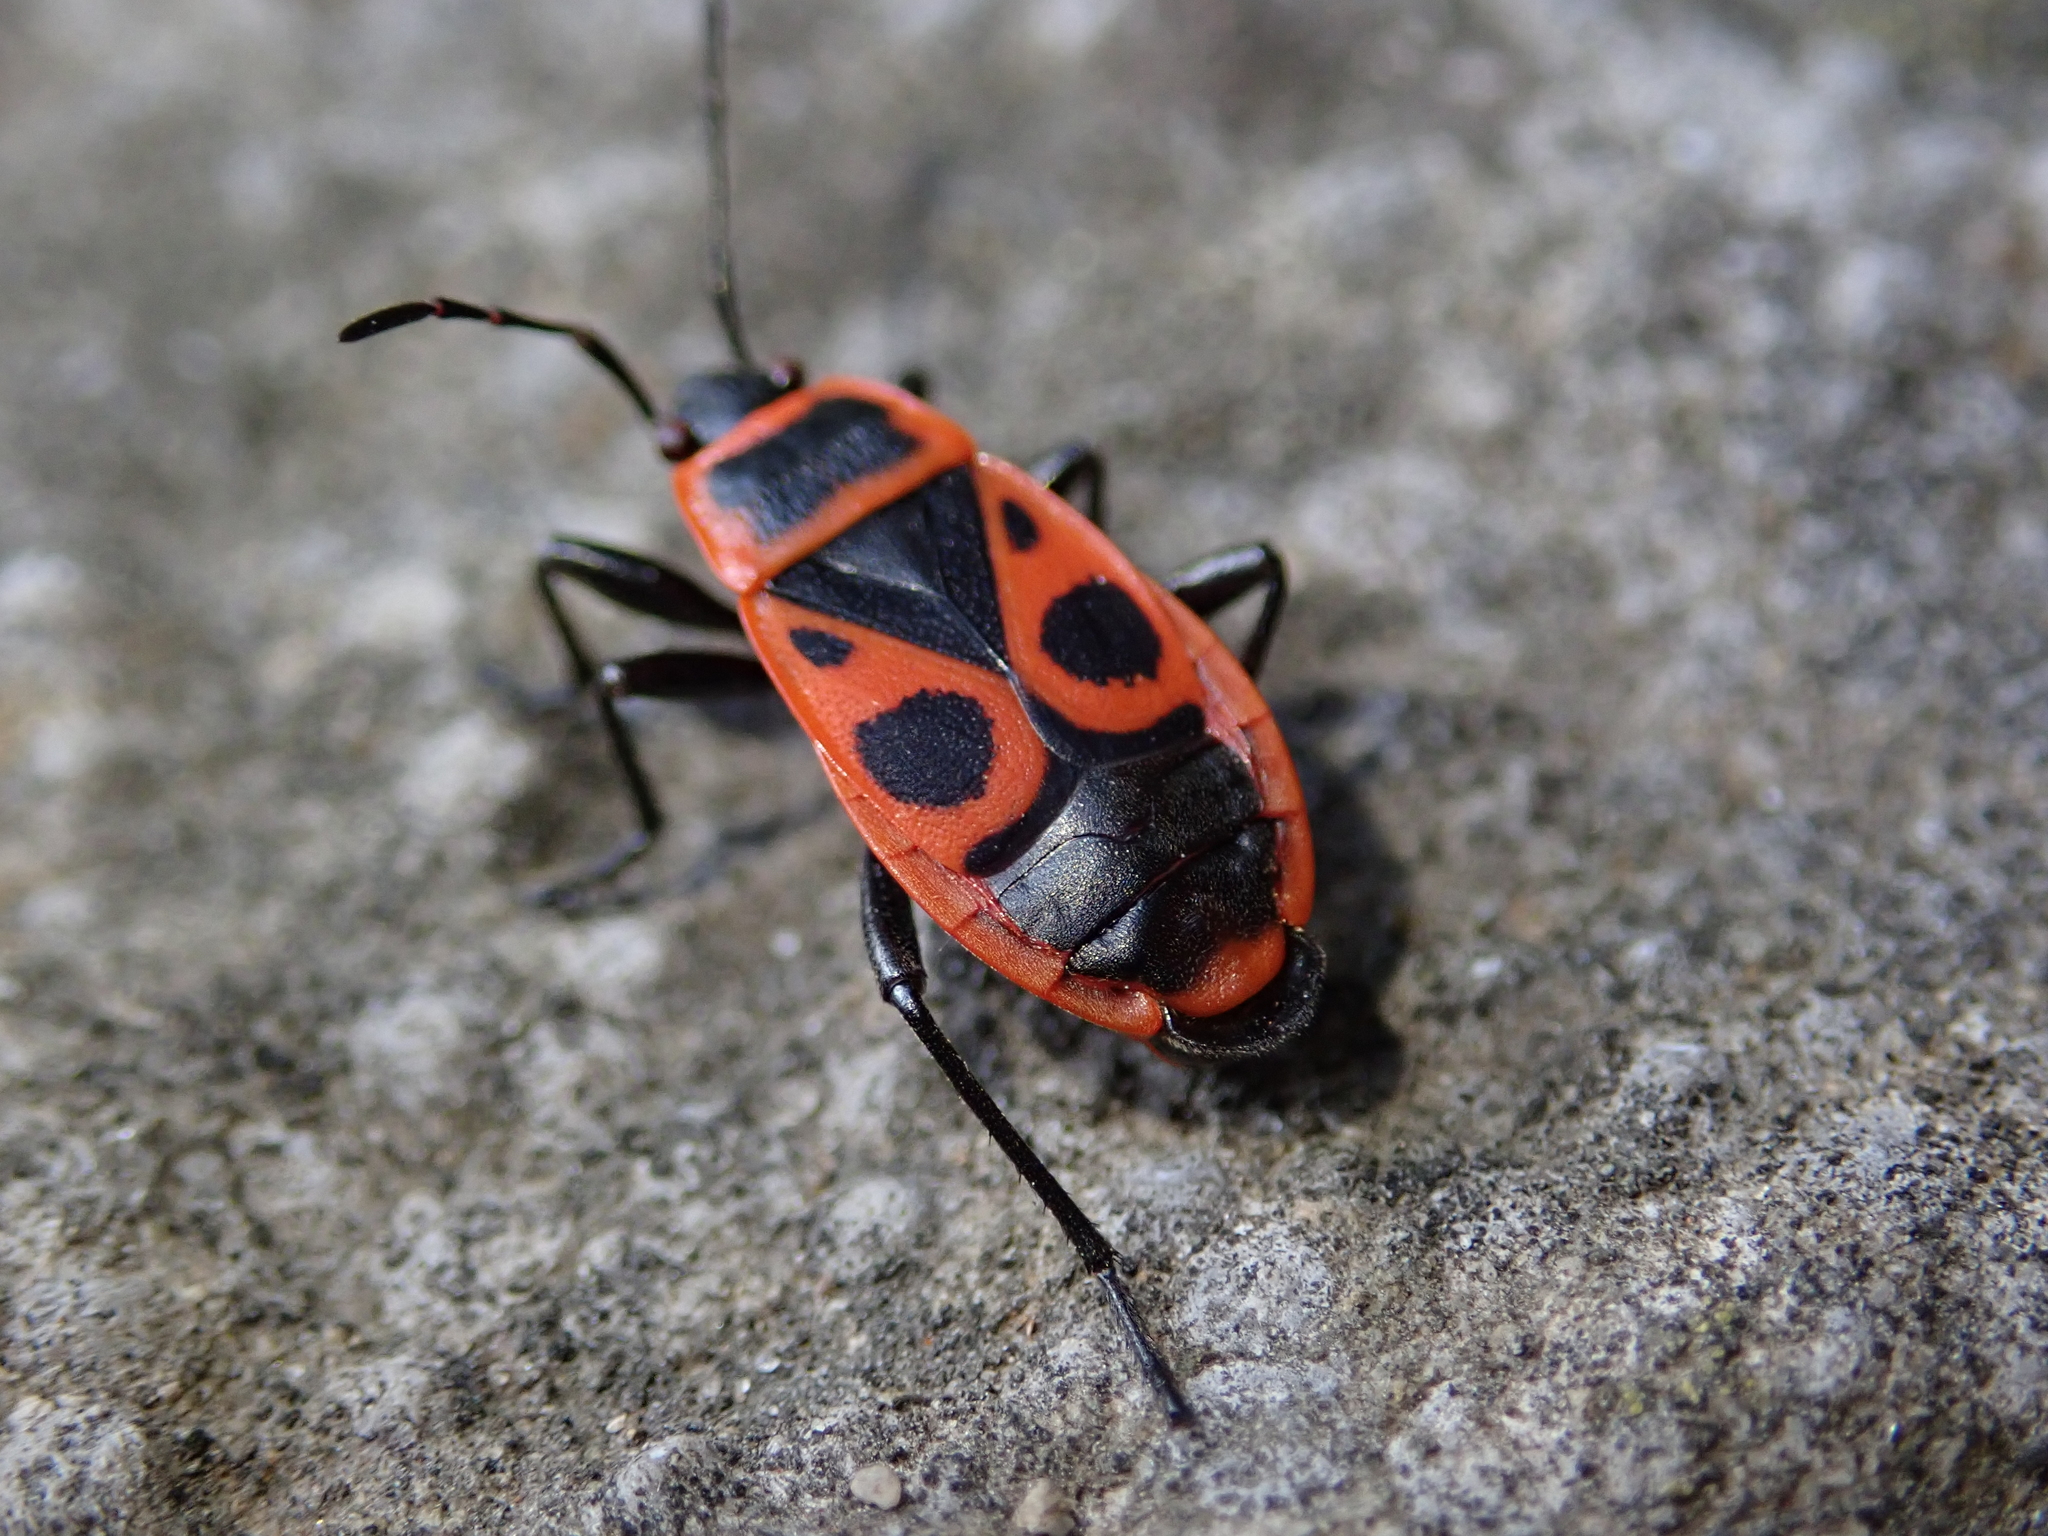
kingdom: Animalia
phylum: Arthropoda
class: Insecta
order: Hemiptera
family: Pyrrhocoridae
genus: Pyrrhocoris
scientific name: Pyrrhocoris apterus
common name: Firebug
